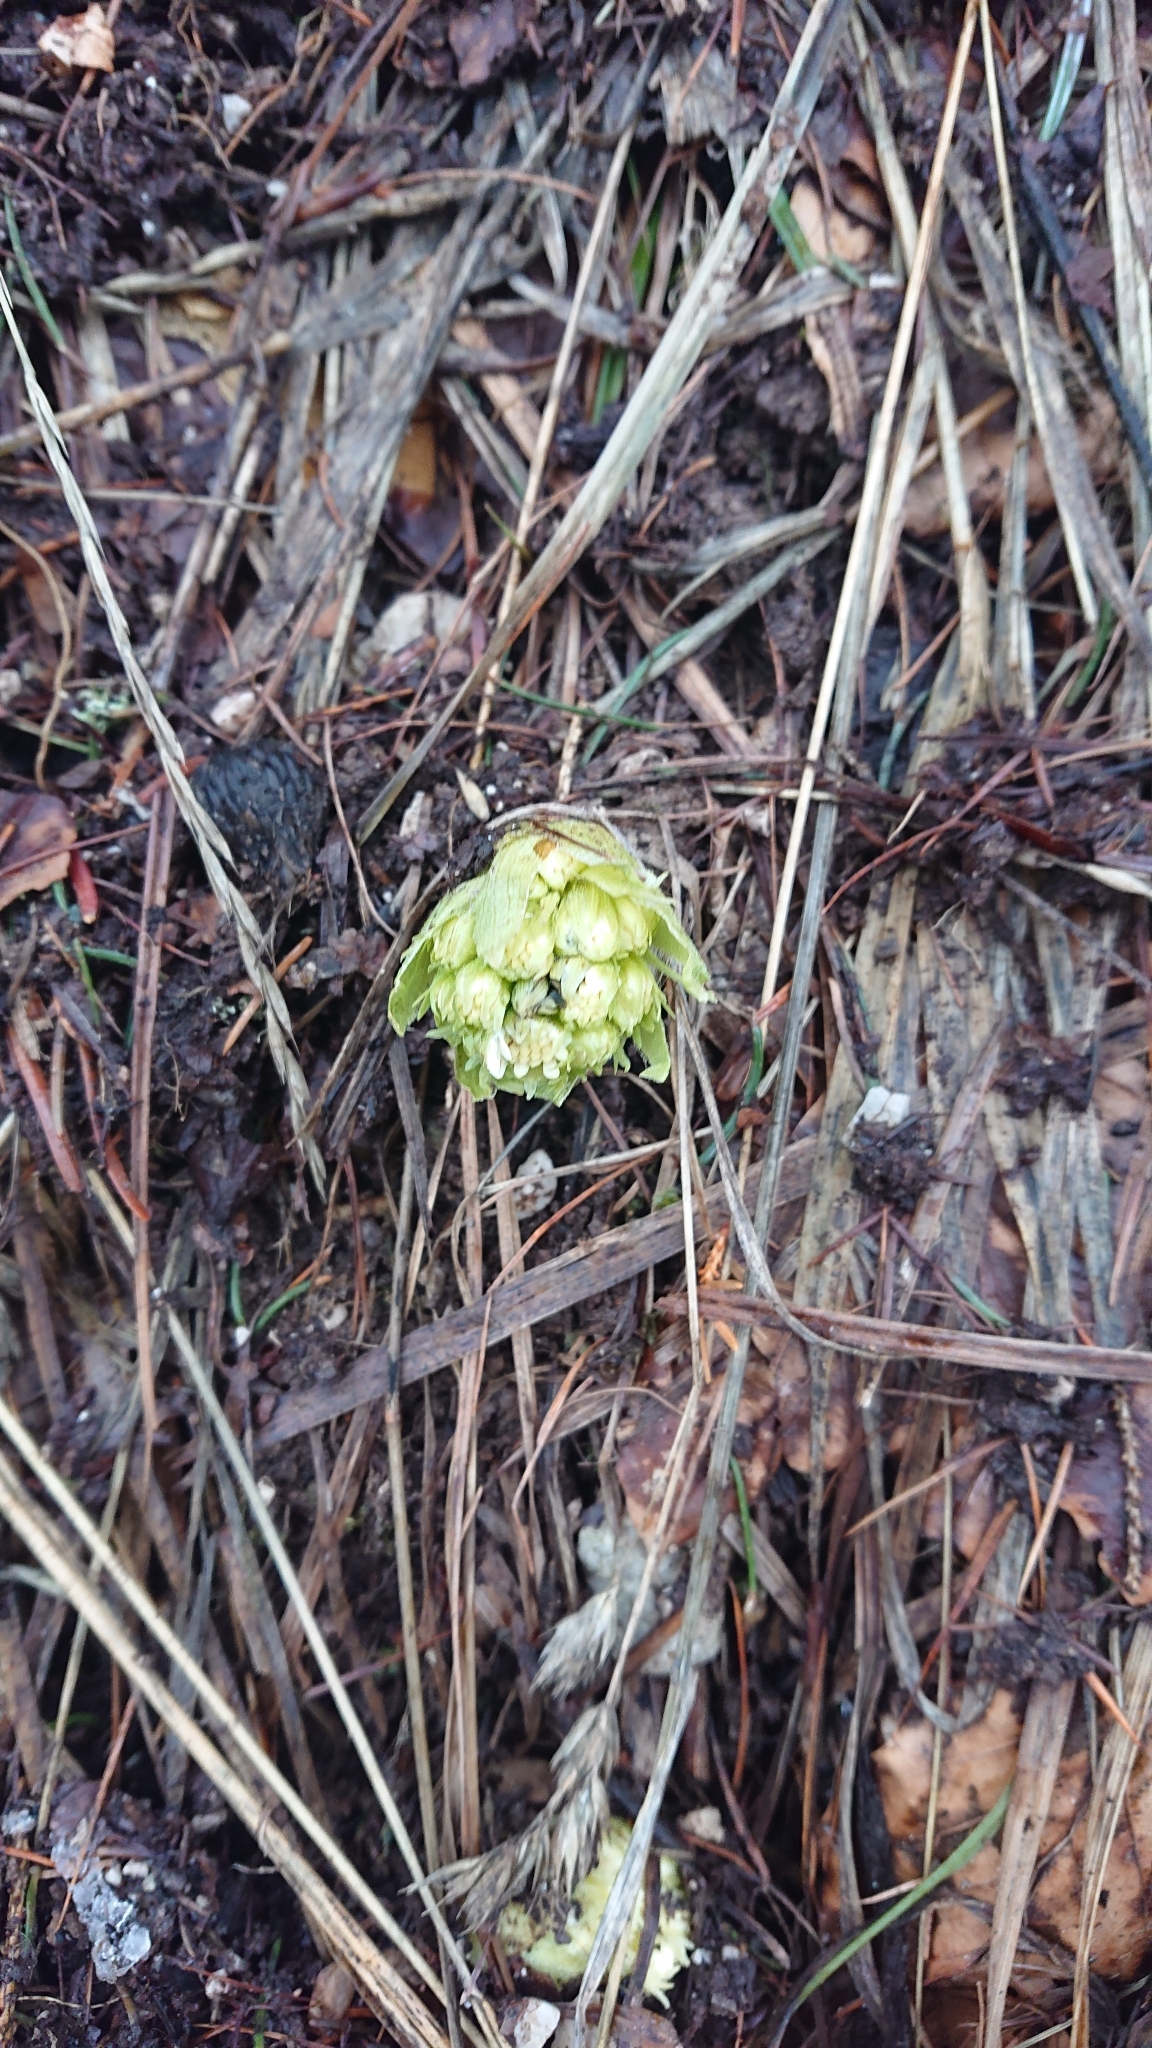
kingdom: Plantae
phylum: Tracheophyta
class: Magnoliopsida
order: Asterales
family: Asteraceae
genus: Petasites
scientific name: Petasites albus
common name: White butterbur
